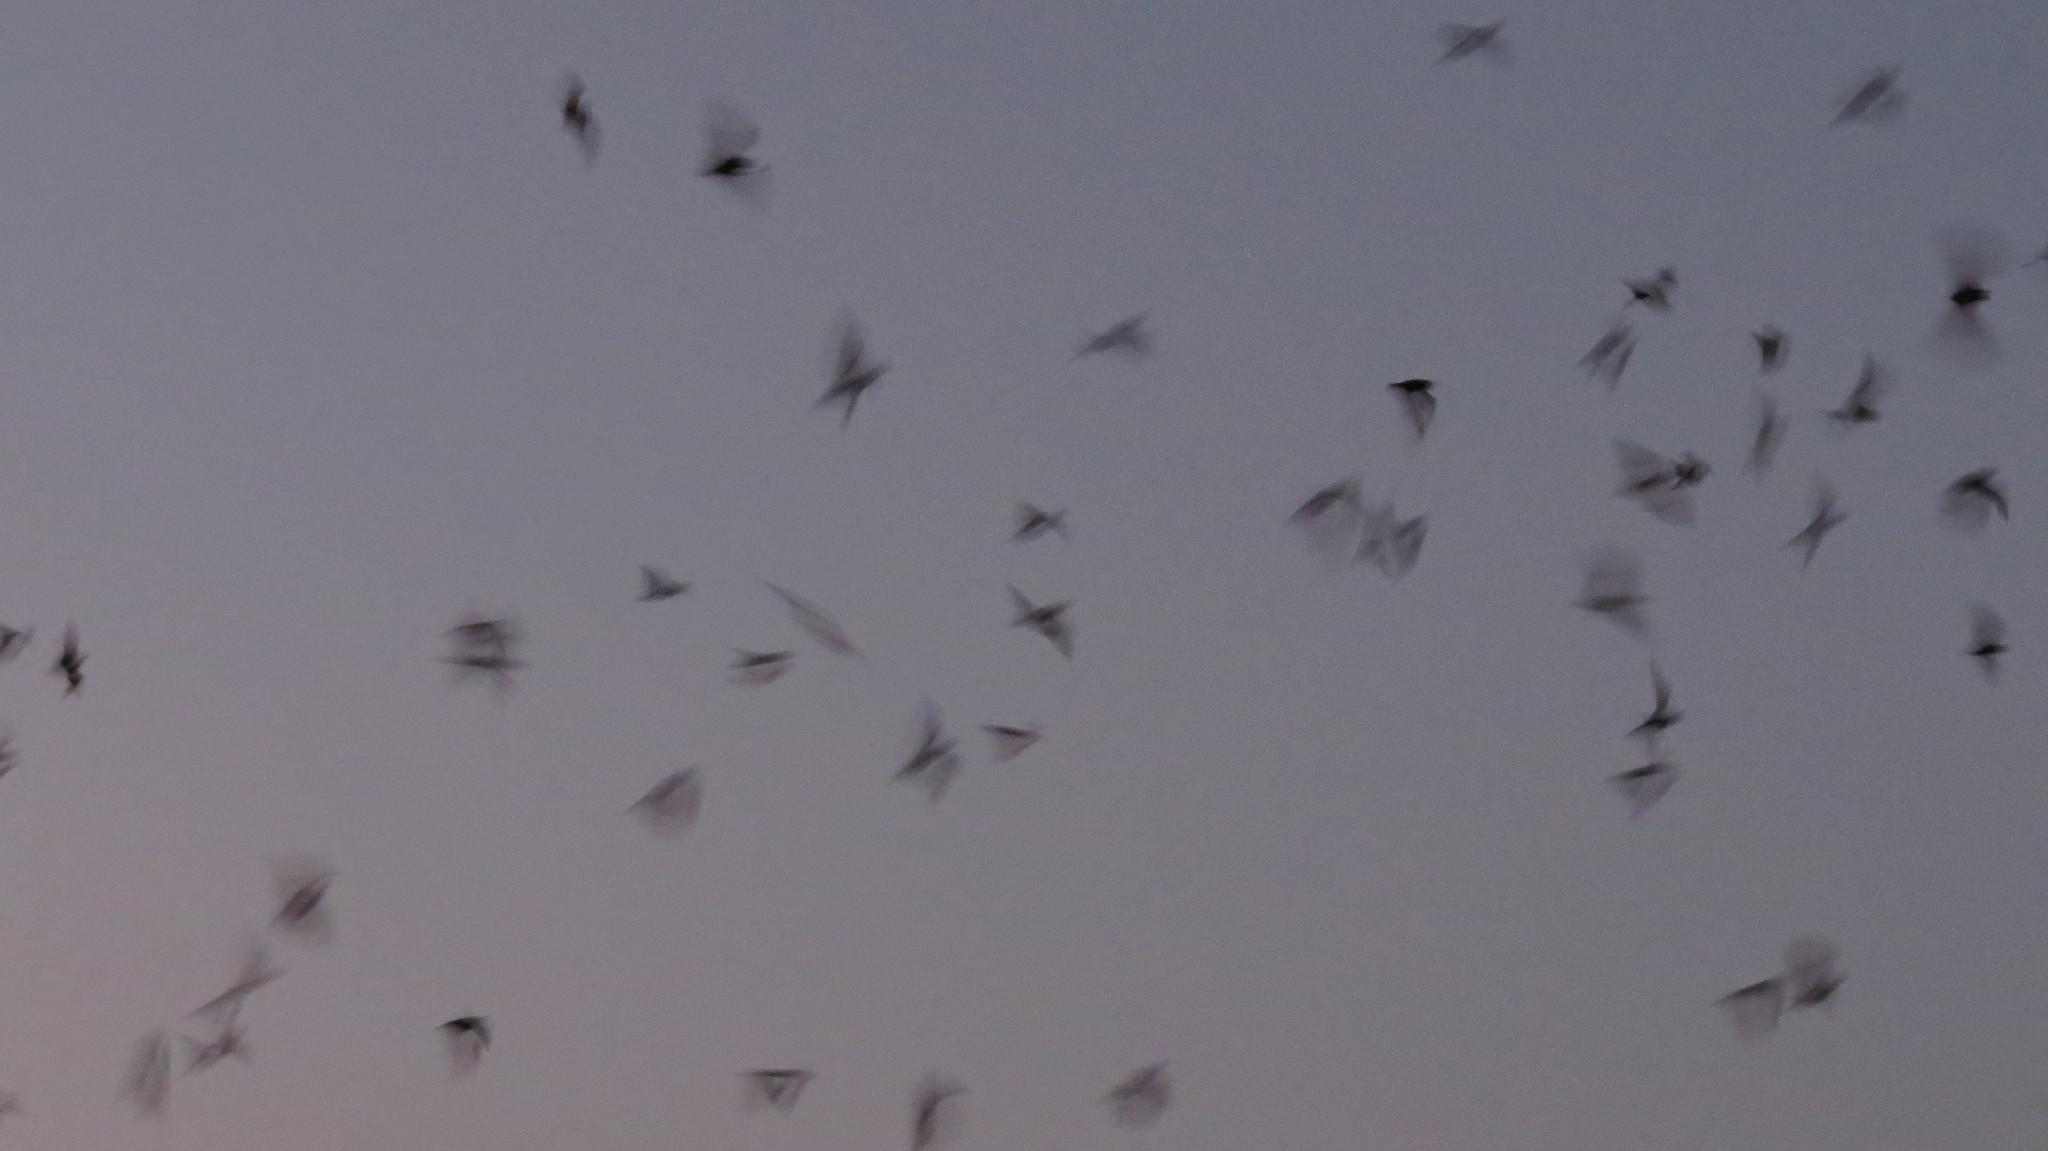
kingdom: Animalia
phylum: Chordata
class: Mammalia
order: Chiroptera
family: Molossidae
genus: Tadarida
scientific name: Tadarida brasiliensis
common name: Mexican free-tailed bat
